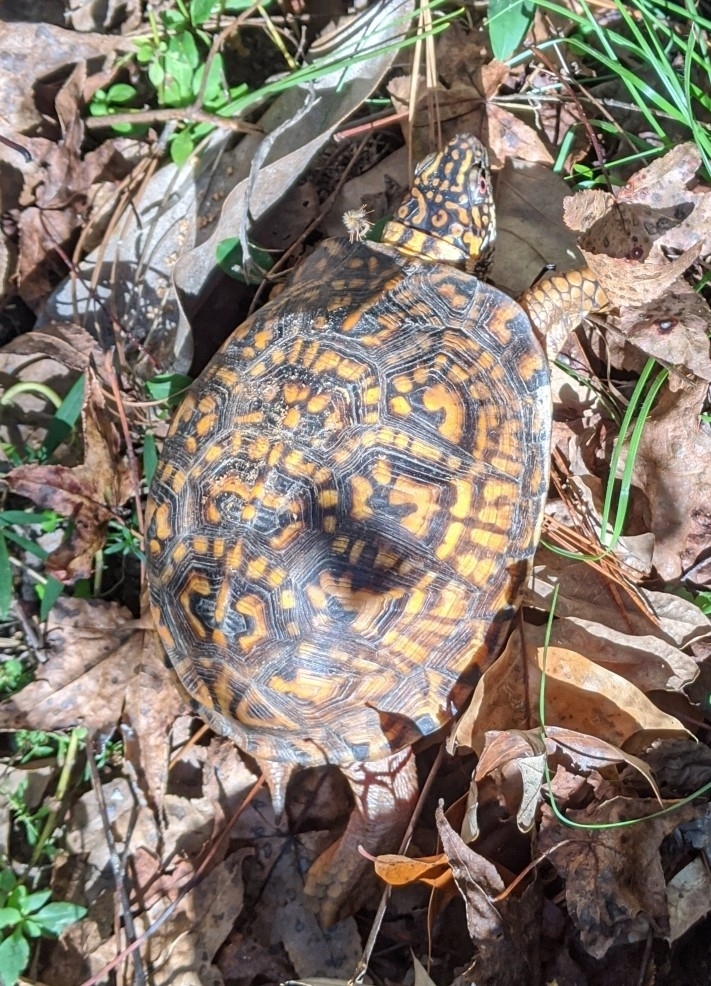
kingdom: Animalia
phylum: Chordata
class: Testudines
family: Emydidae
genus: Terrapene
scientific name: Terrapene carolina
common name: Common box turtle
